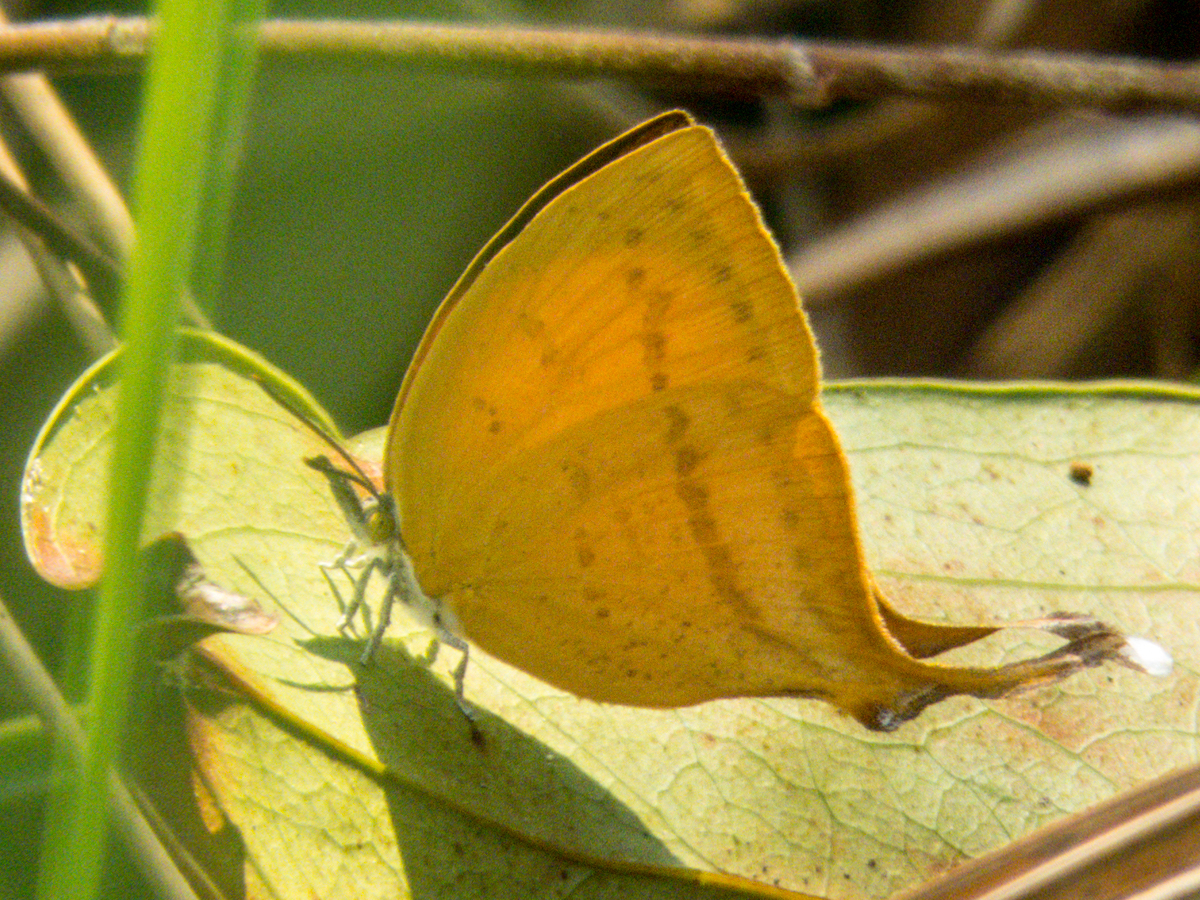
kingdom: Animalia
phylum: Arthropoda
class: Insecta
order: Lepidoptera
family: Lycaenidae
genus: Loxura
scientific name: Loxura atymnus
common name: Common yamfly
